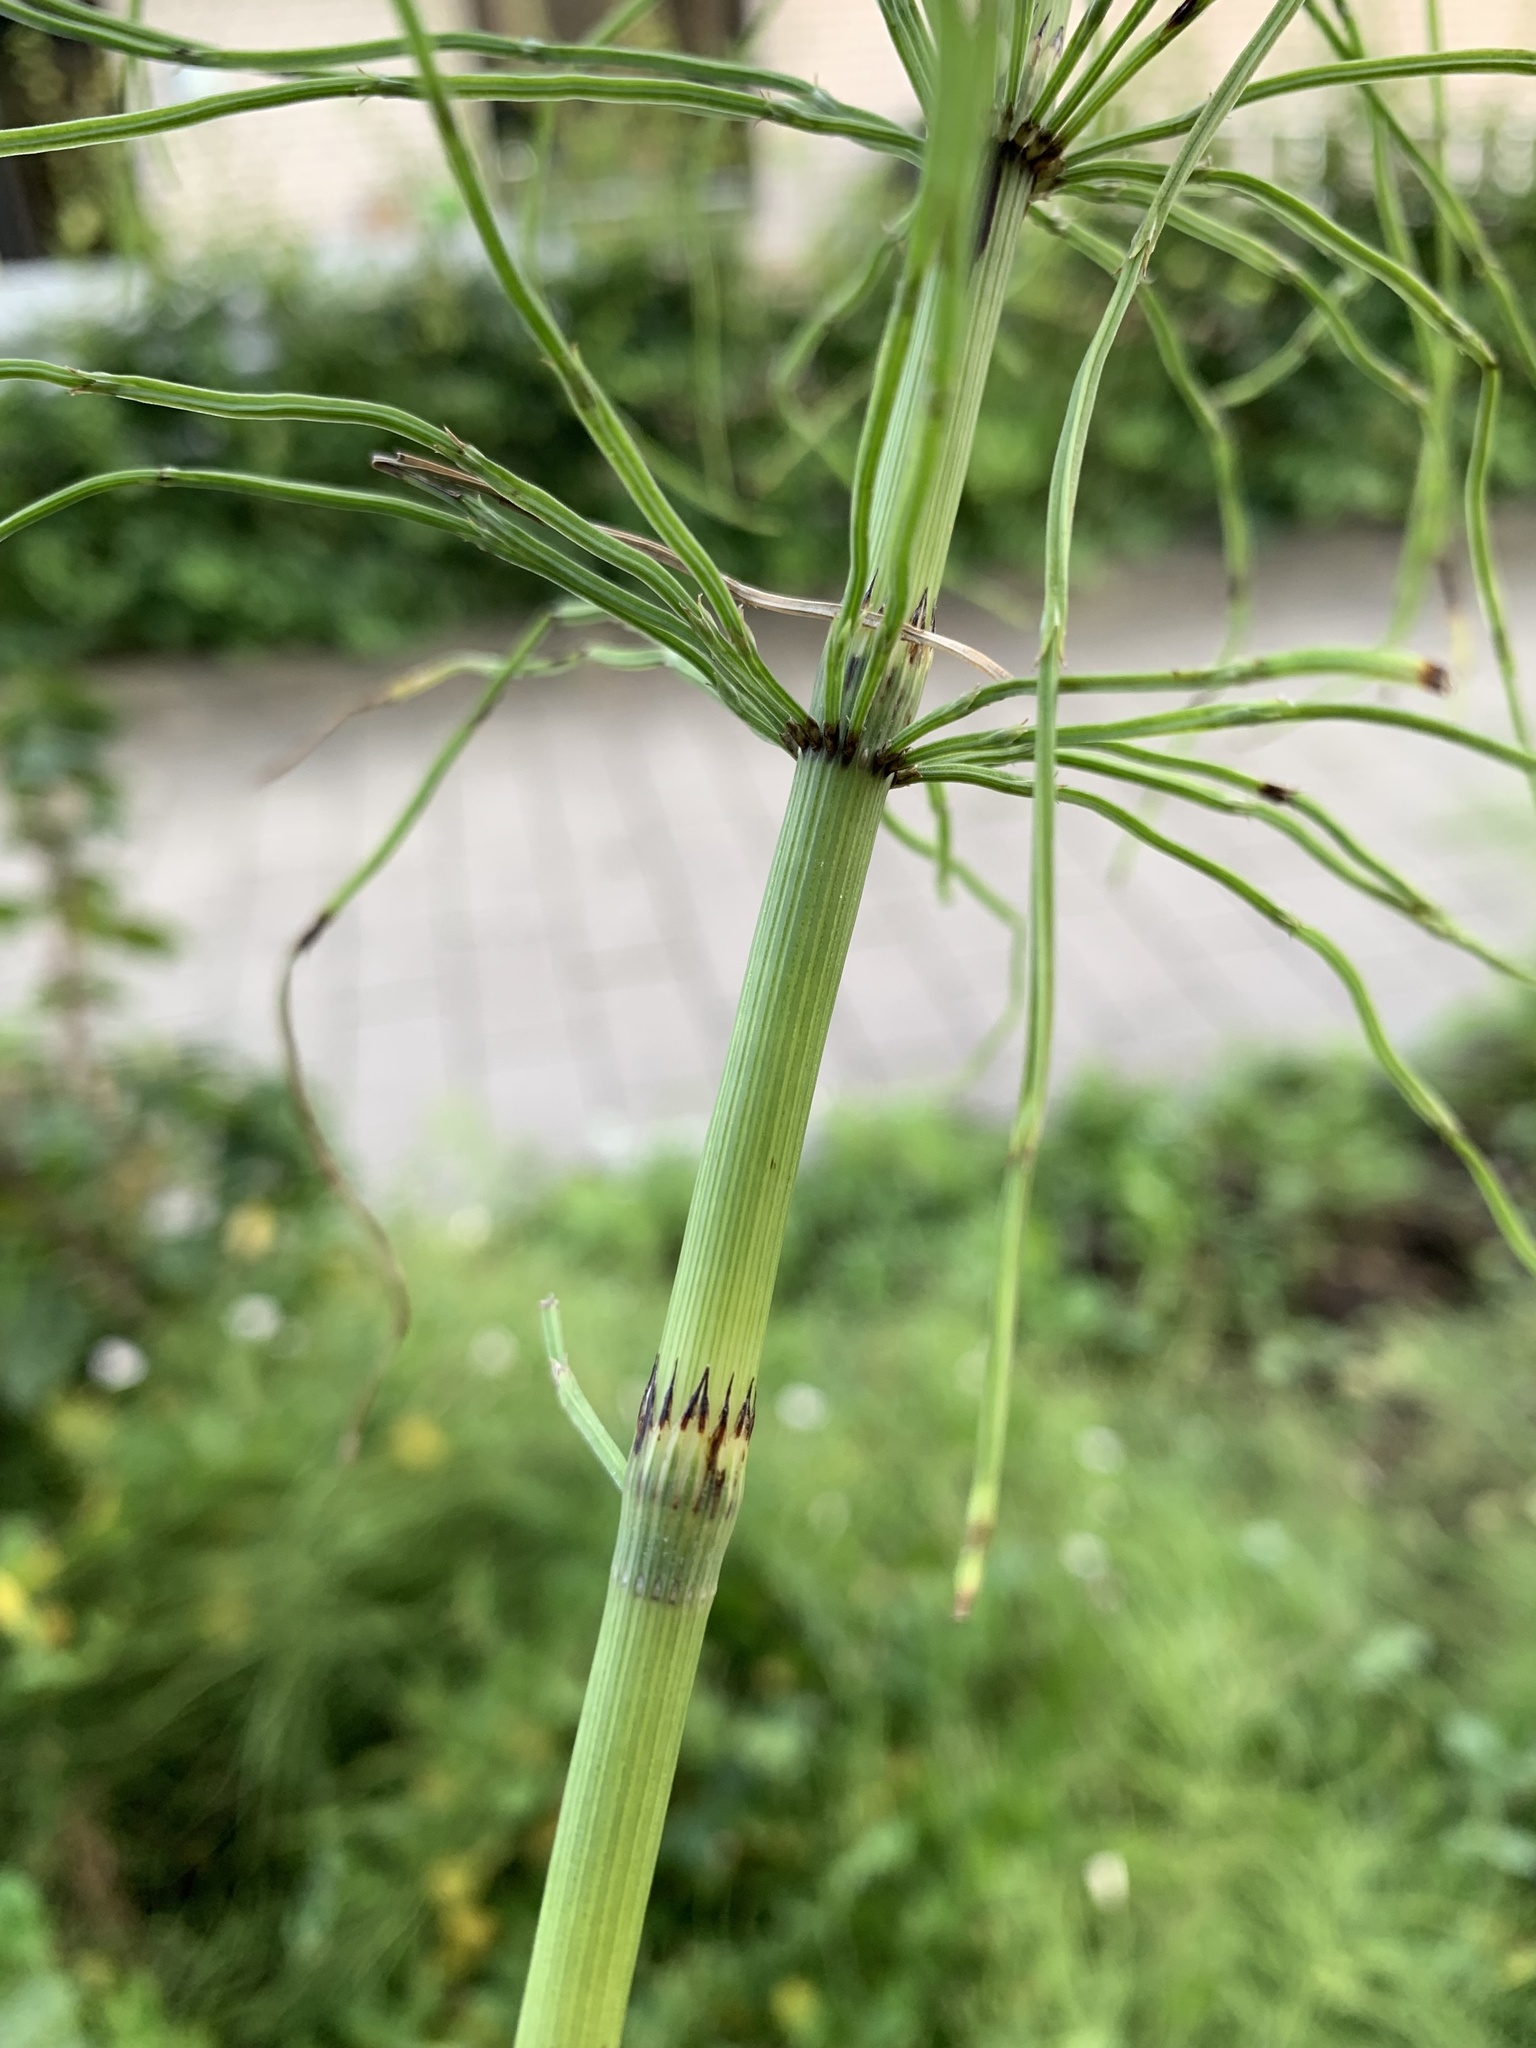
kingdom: Plantae
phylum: Tracheophyta
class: Polypodiopsida
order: Equisetales
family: Equisetaceae
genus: Equisetum
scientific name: Equisetum arvense
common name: Field horsetail
